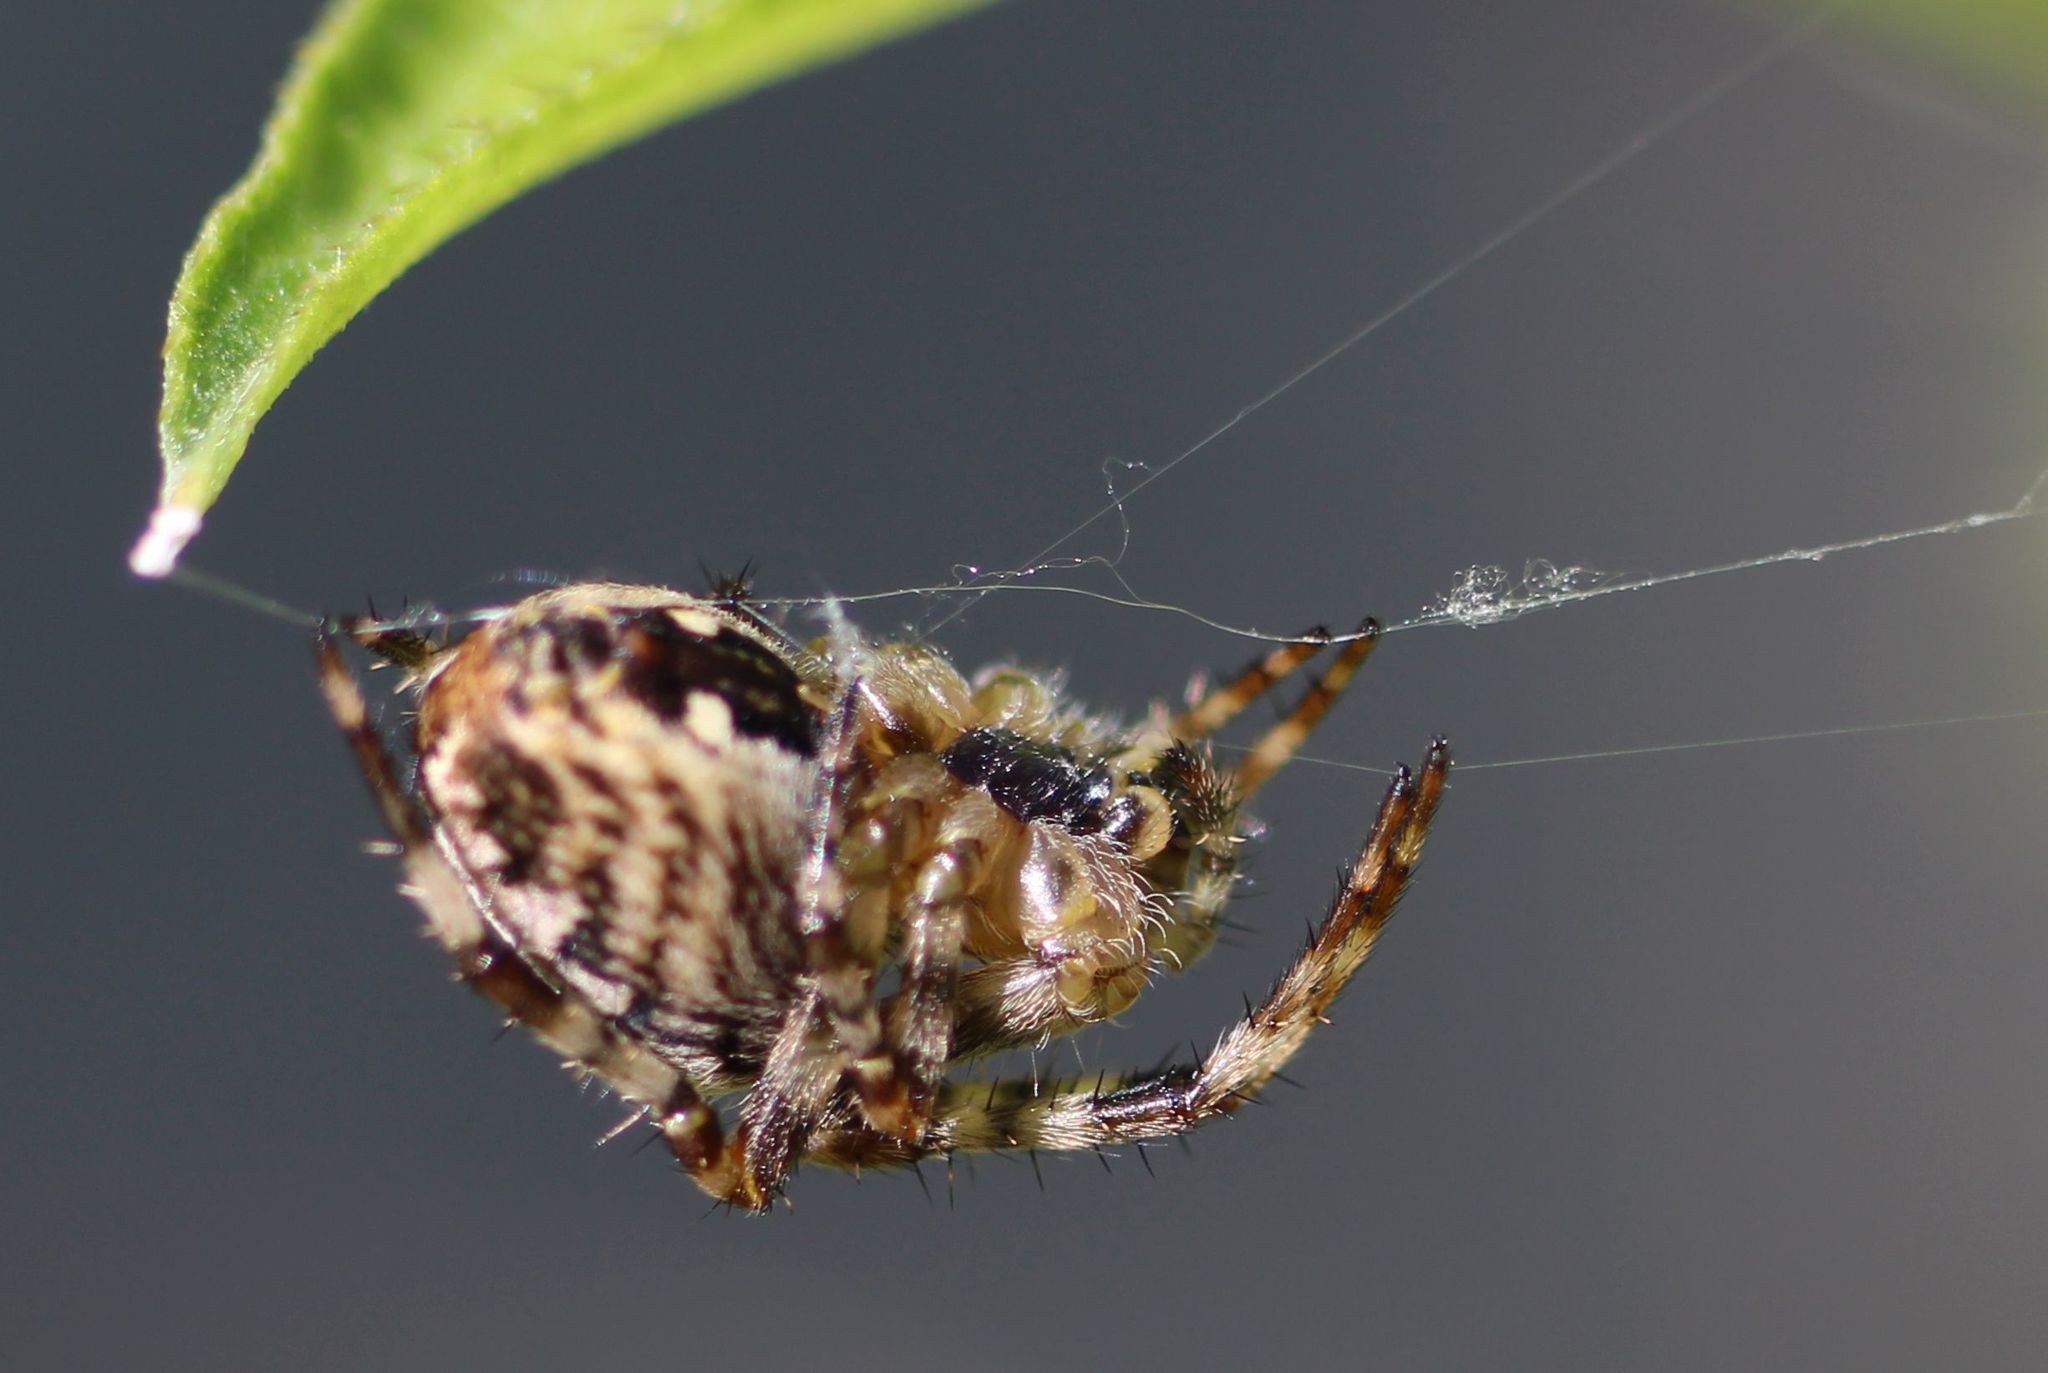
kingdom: Animalia
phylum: Arthropoda
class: Arachnida
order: Araneae
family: Araneidae
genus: Araneus
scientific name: Araneus diadematus
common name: Cross orbweaver
